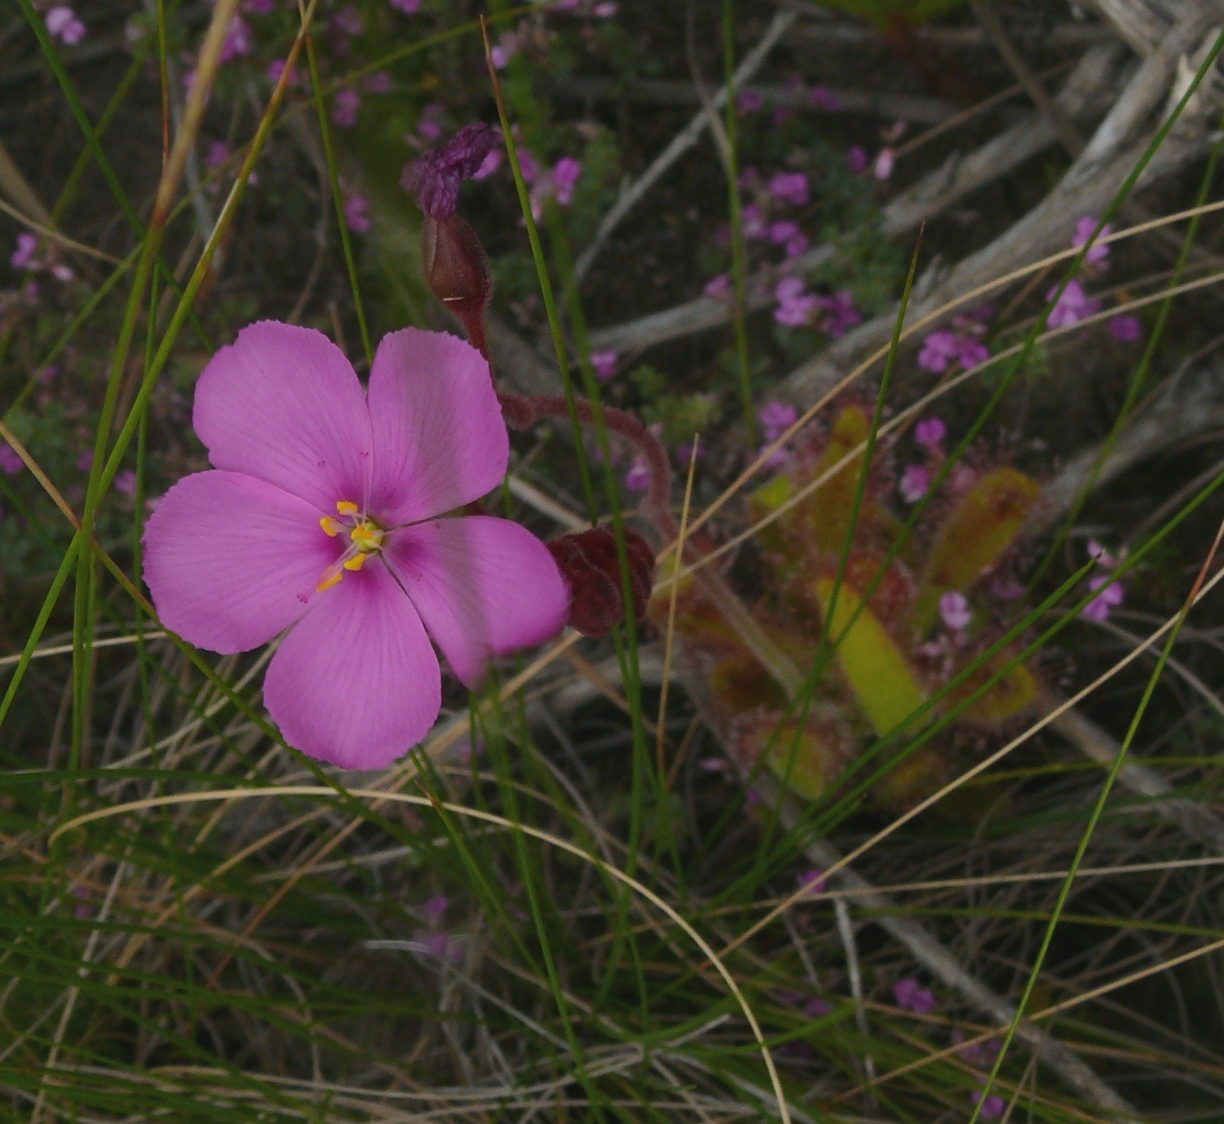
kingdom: Plantae
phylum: Tracheophyta
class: Magnoliopsida
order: Caryophyllales
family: Droseraceae
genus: Drosera
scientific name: Drosera hilaris
